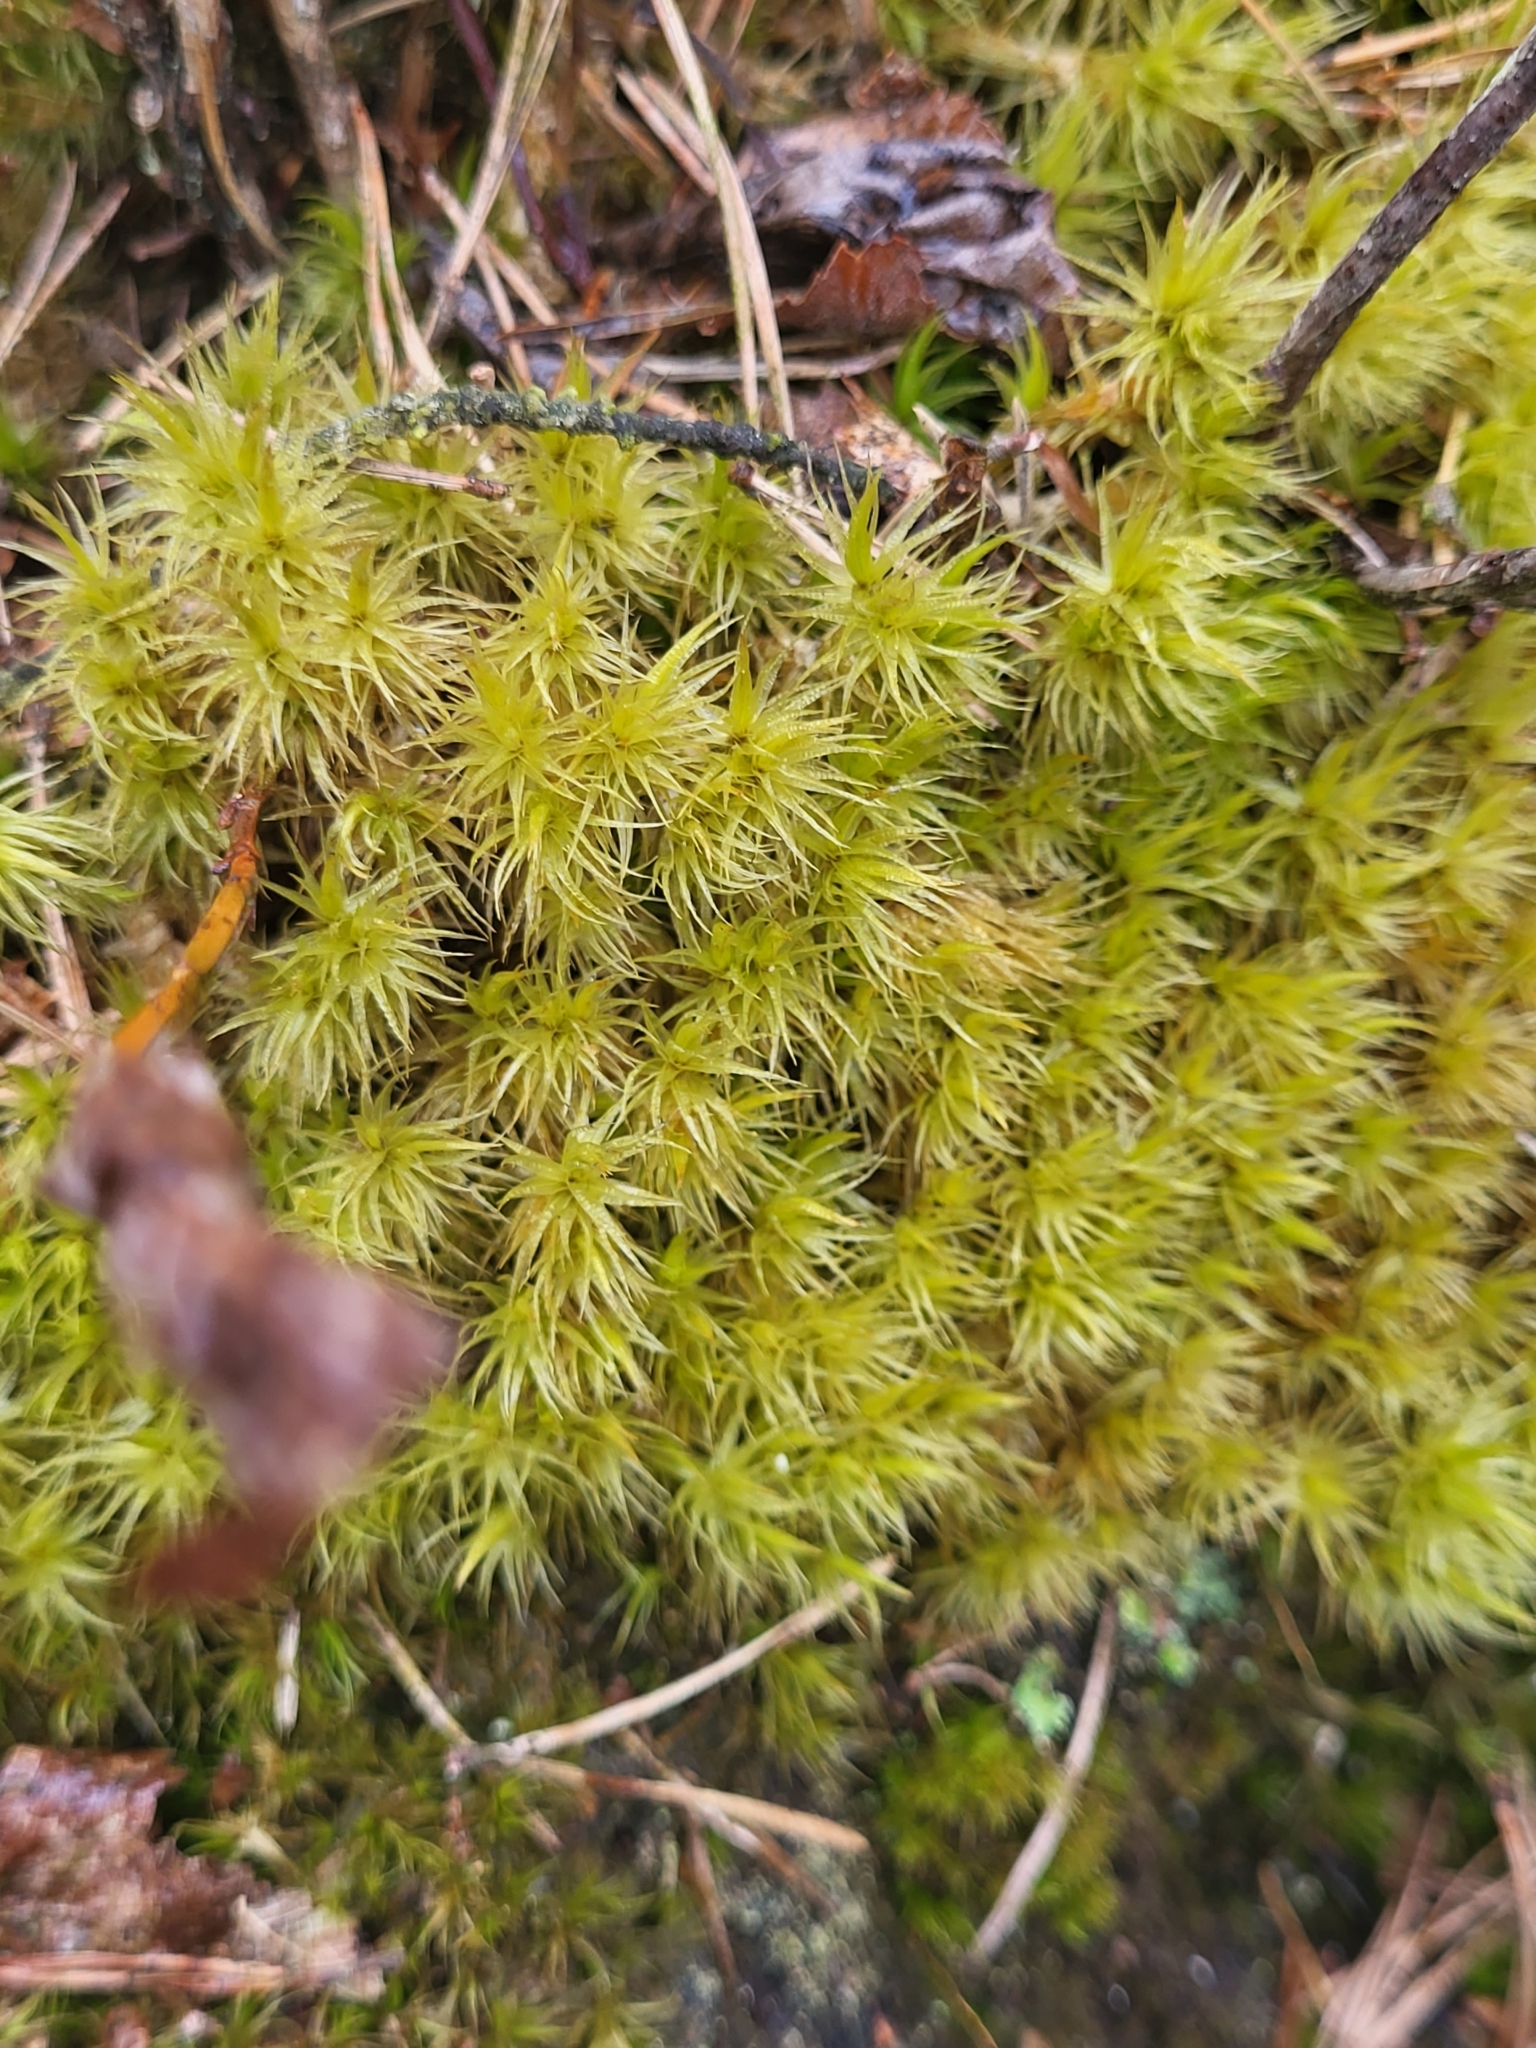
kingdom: Plantae
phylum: Bryophyta
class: Bryopsida
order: Dicranales
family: Dicranaceae
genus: Dicranum
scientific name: Dicranum polysetum
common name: Rugose fork-moss
